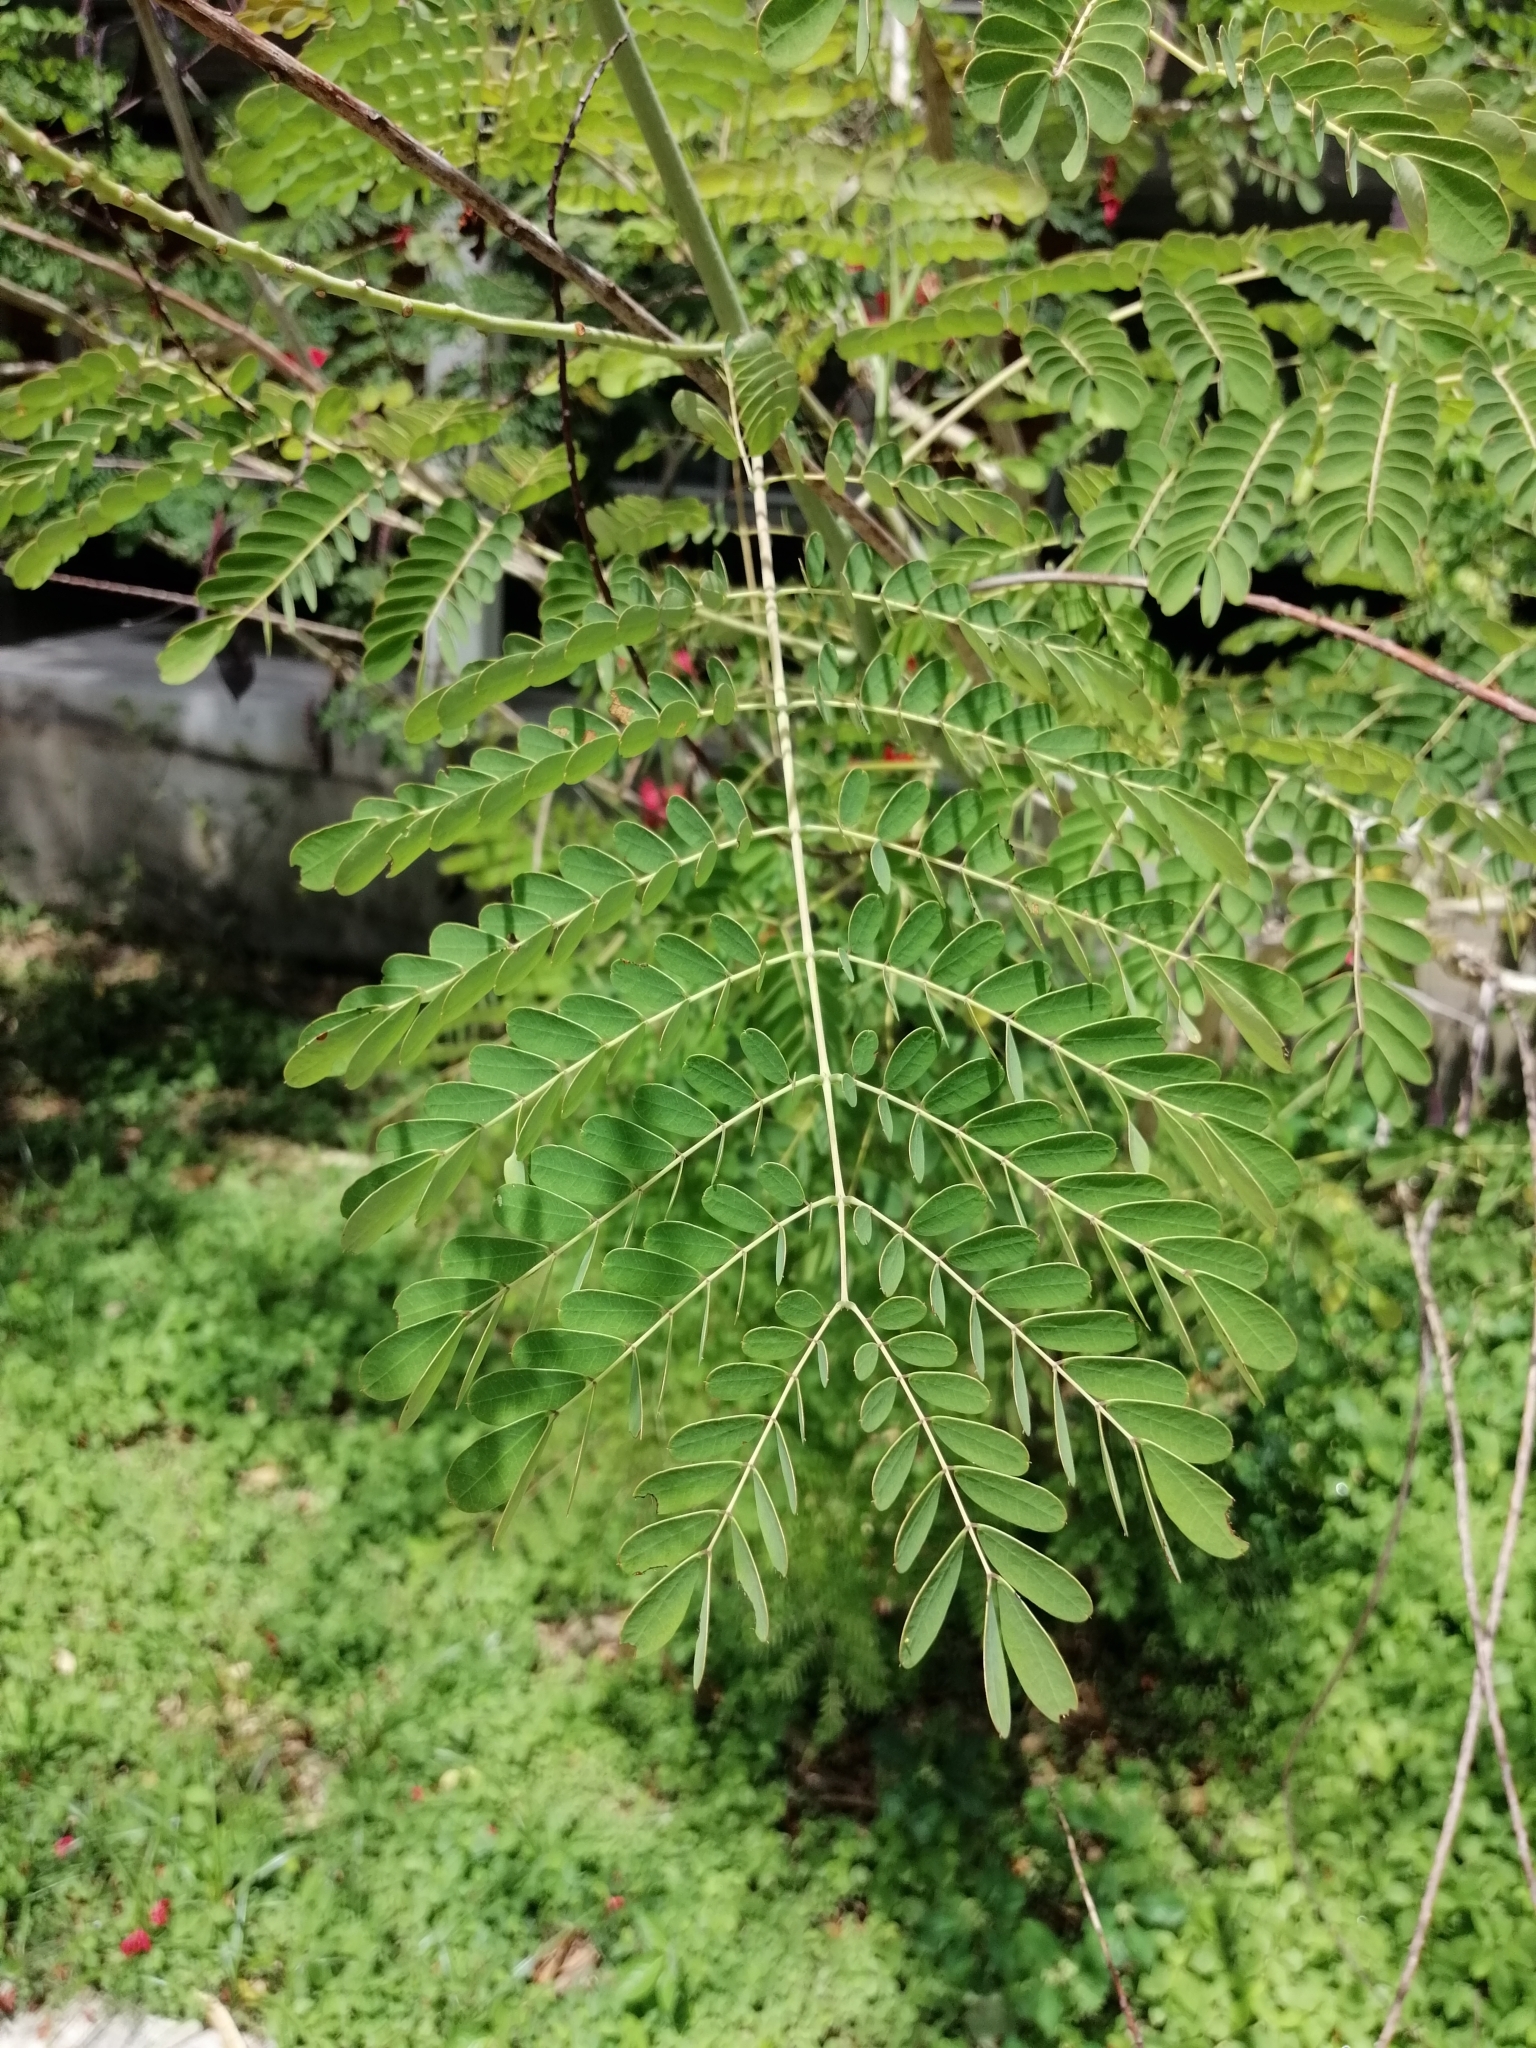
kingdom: Plantae
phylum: Tracheophyta
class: Magnoliopsida
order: Fabales
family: Fabaceae
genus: Caesalpinia
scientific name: Caesalpinia pulcherrima
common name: Pride-of-barbados
